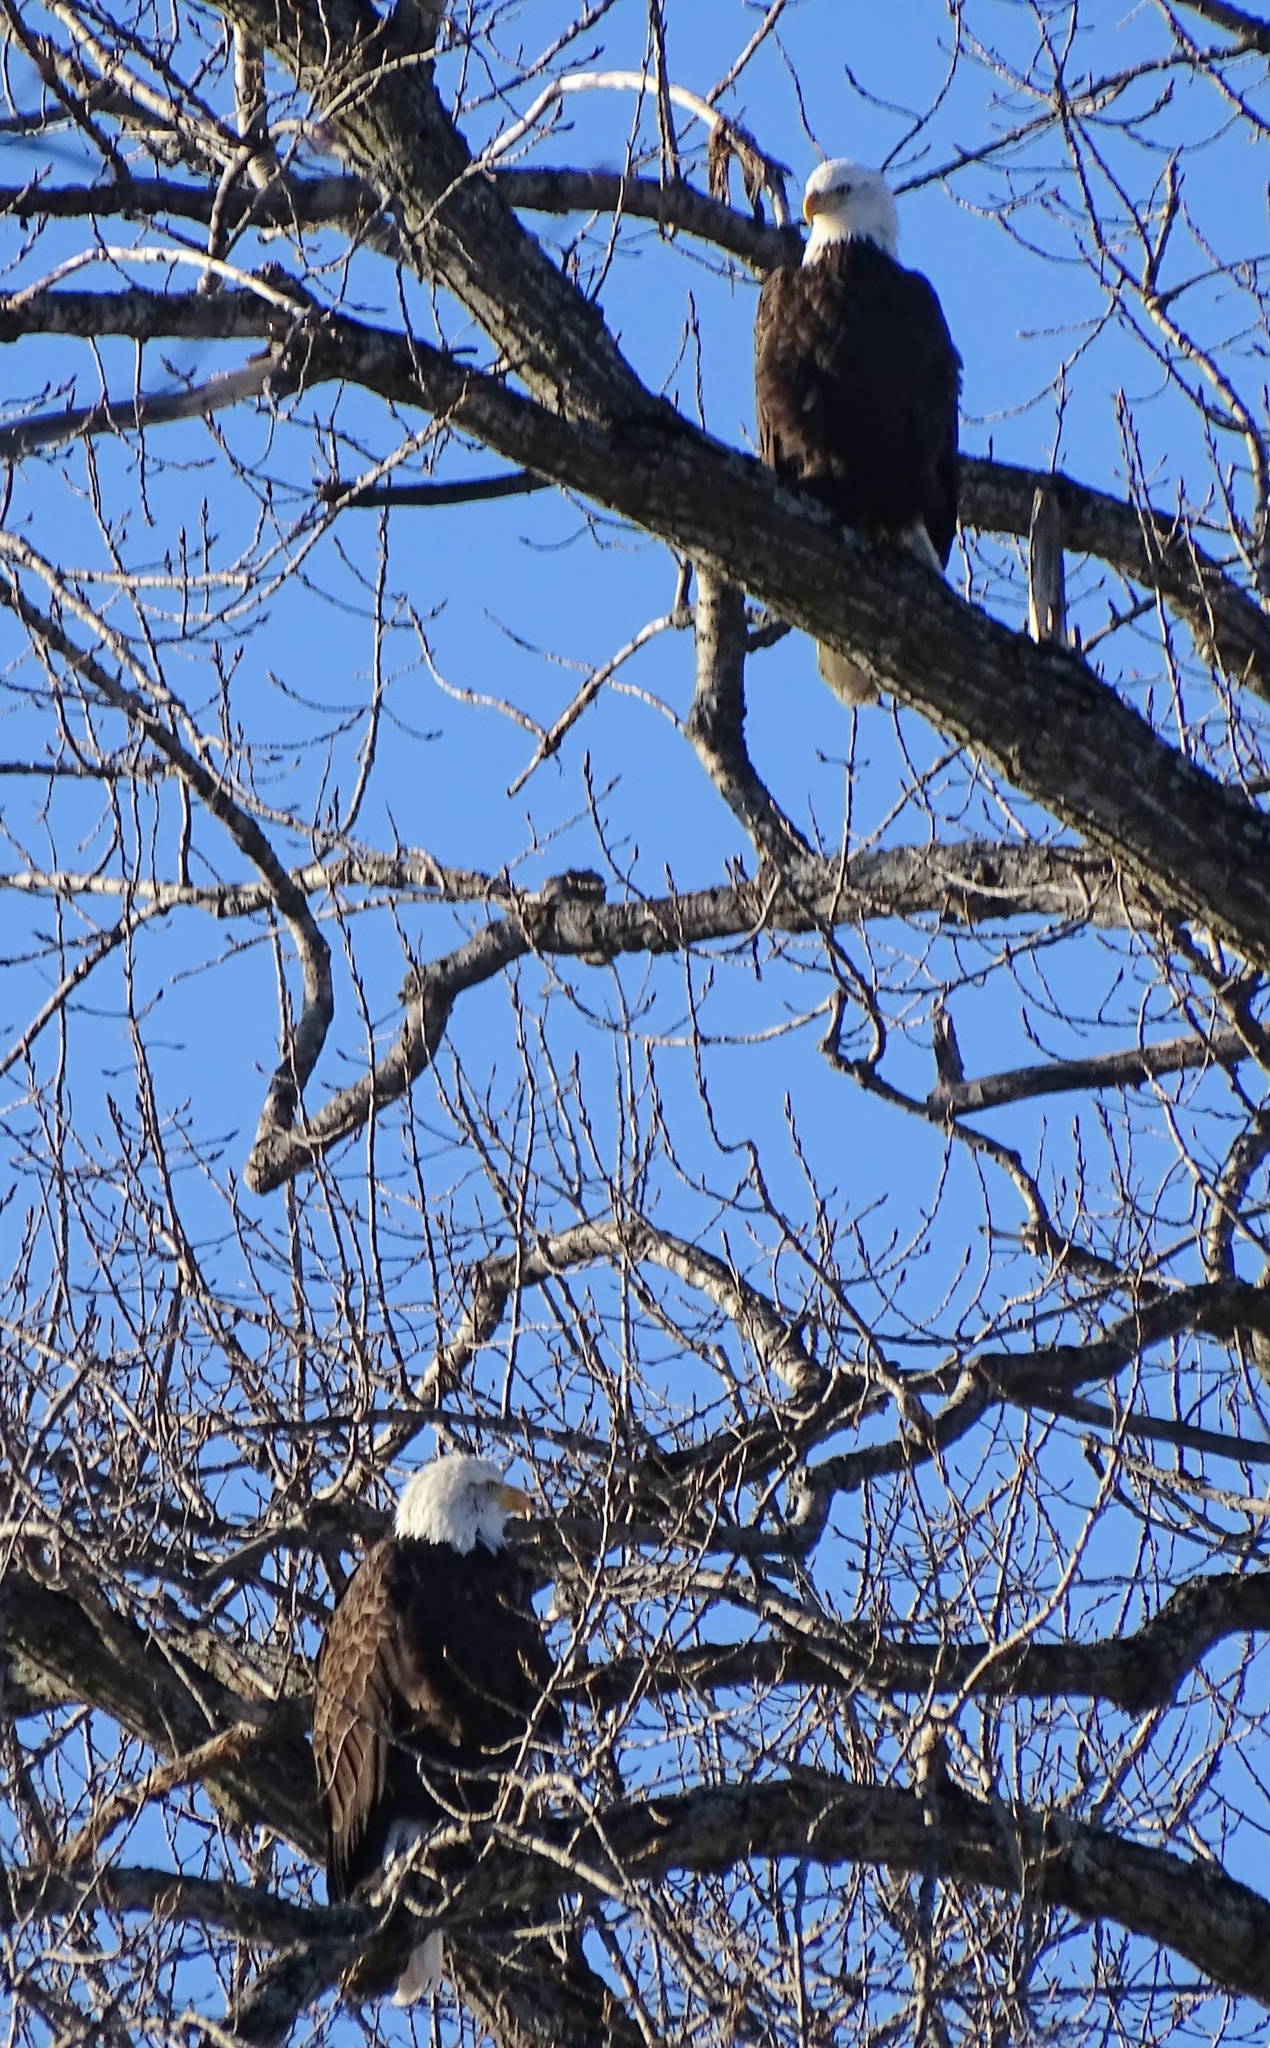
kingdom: Animalia
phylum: Chordata
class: Aves
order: Accipitriformes
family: Accipitridae
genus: Haliaeetus
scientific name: Haliaeetus leucocephalus
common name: Bald eagle
